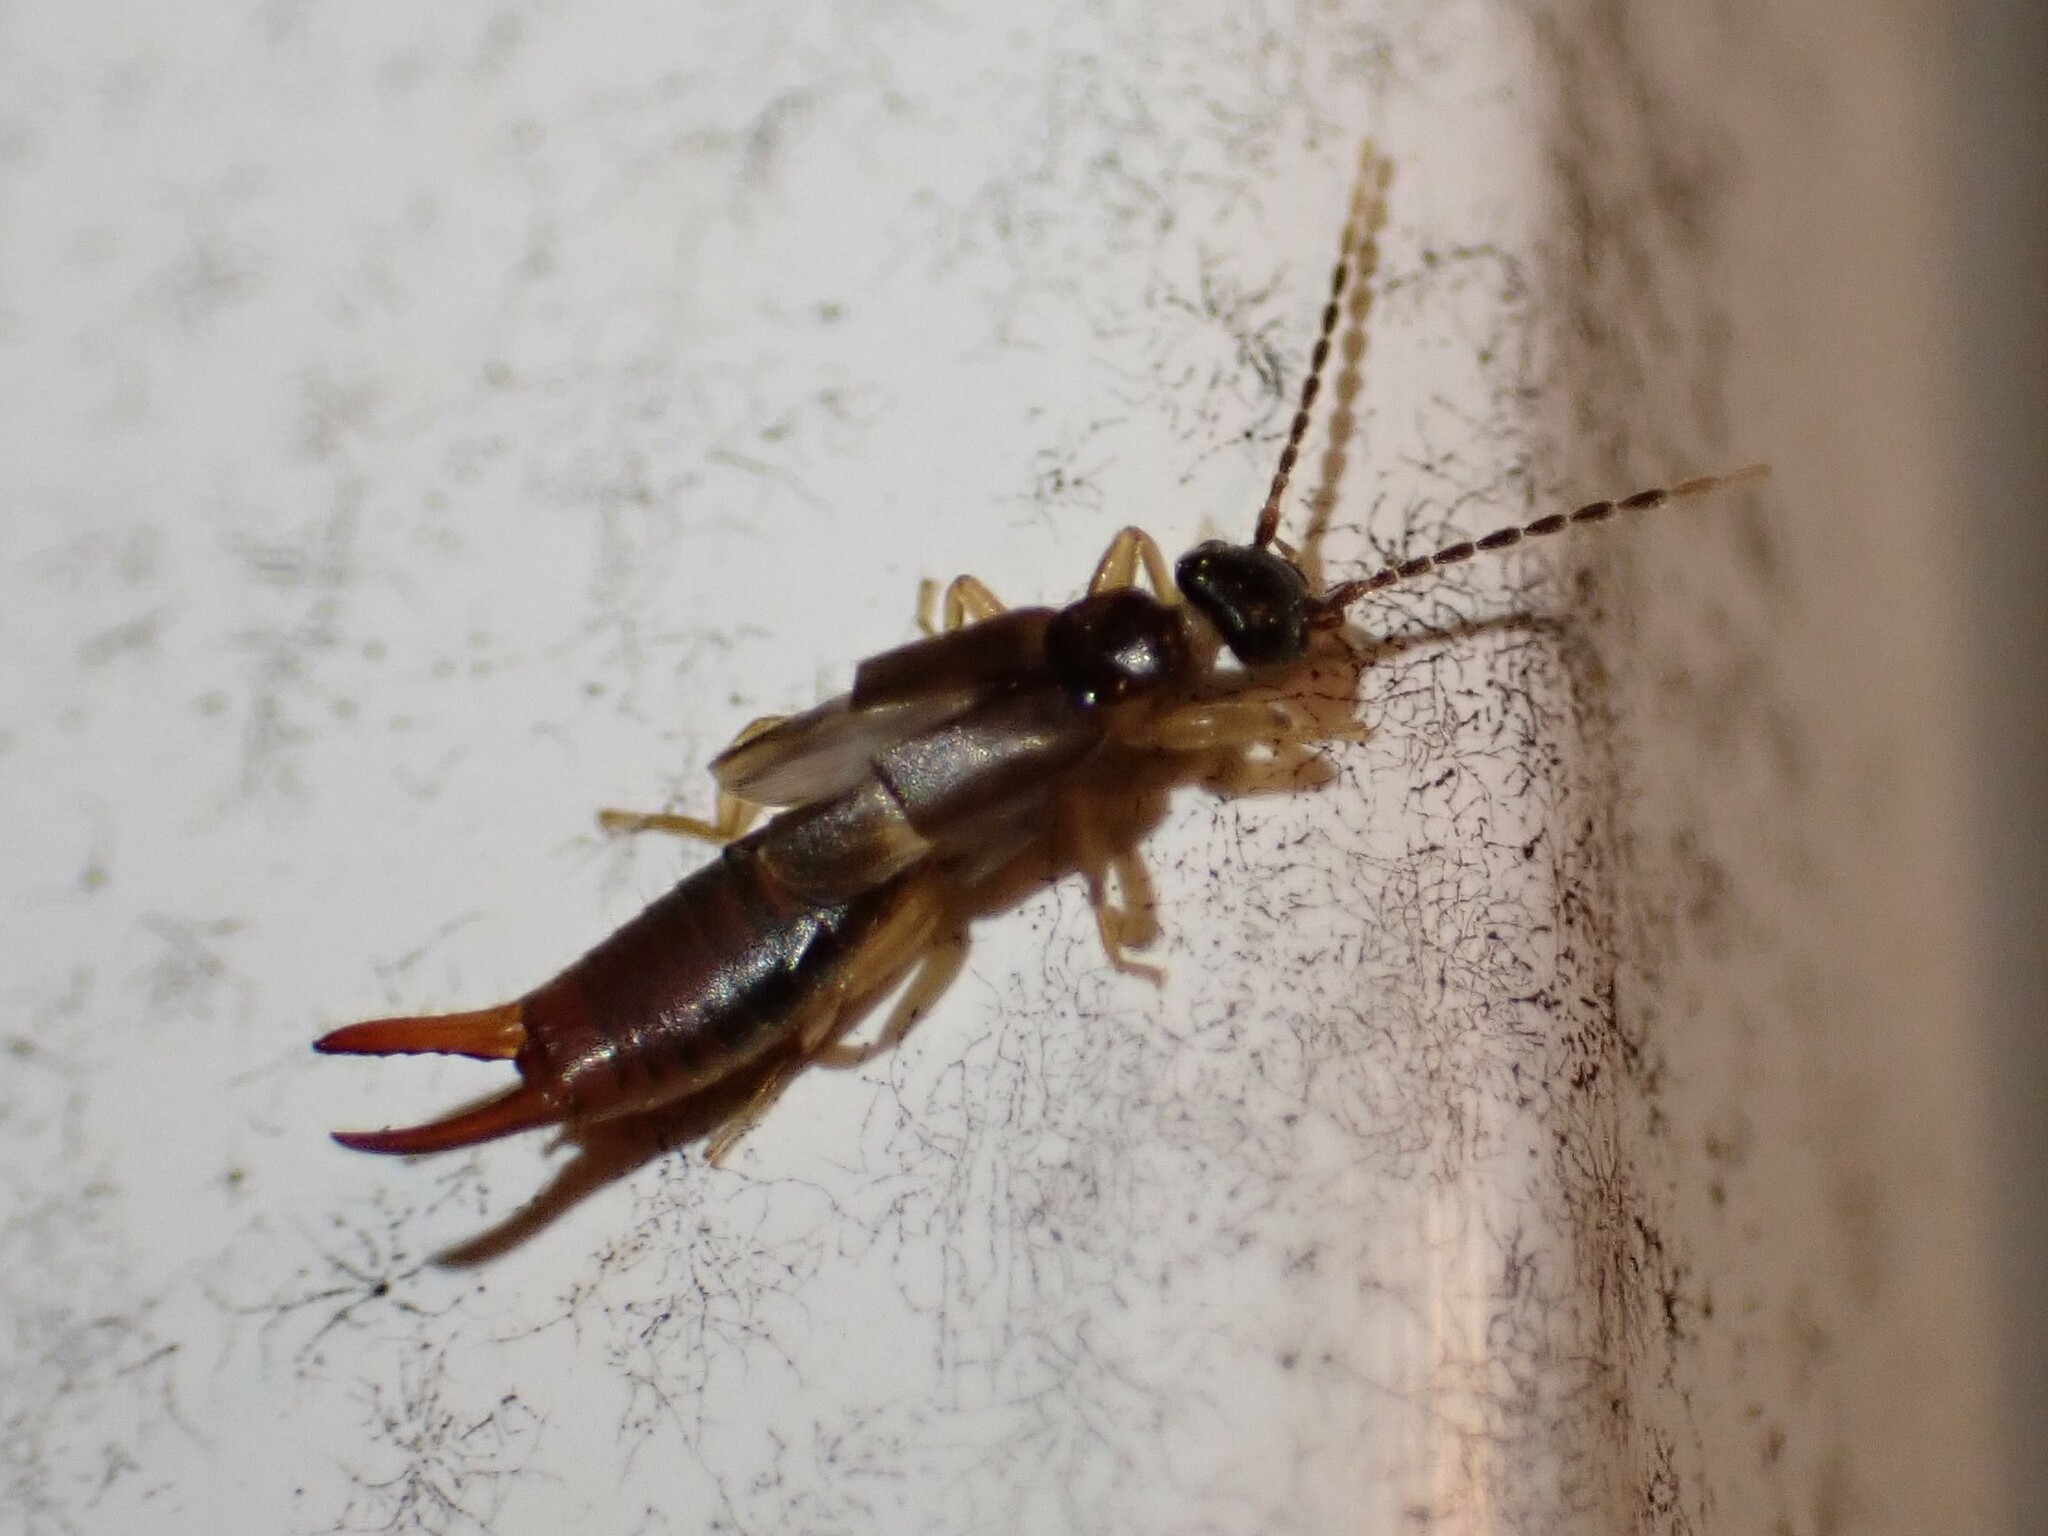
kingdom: Animalia
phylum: Arthropoda
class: Insecta
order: Dermaptera
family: Spongiphoridae
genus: Labia
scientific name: Labia minor
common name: Lesser earwig
